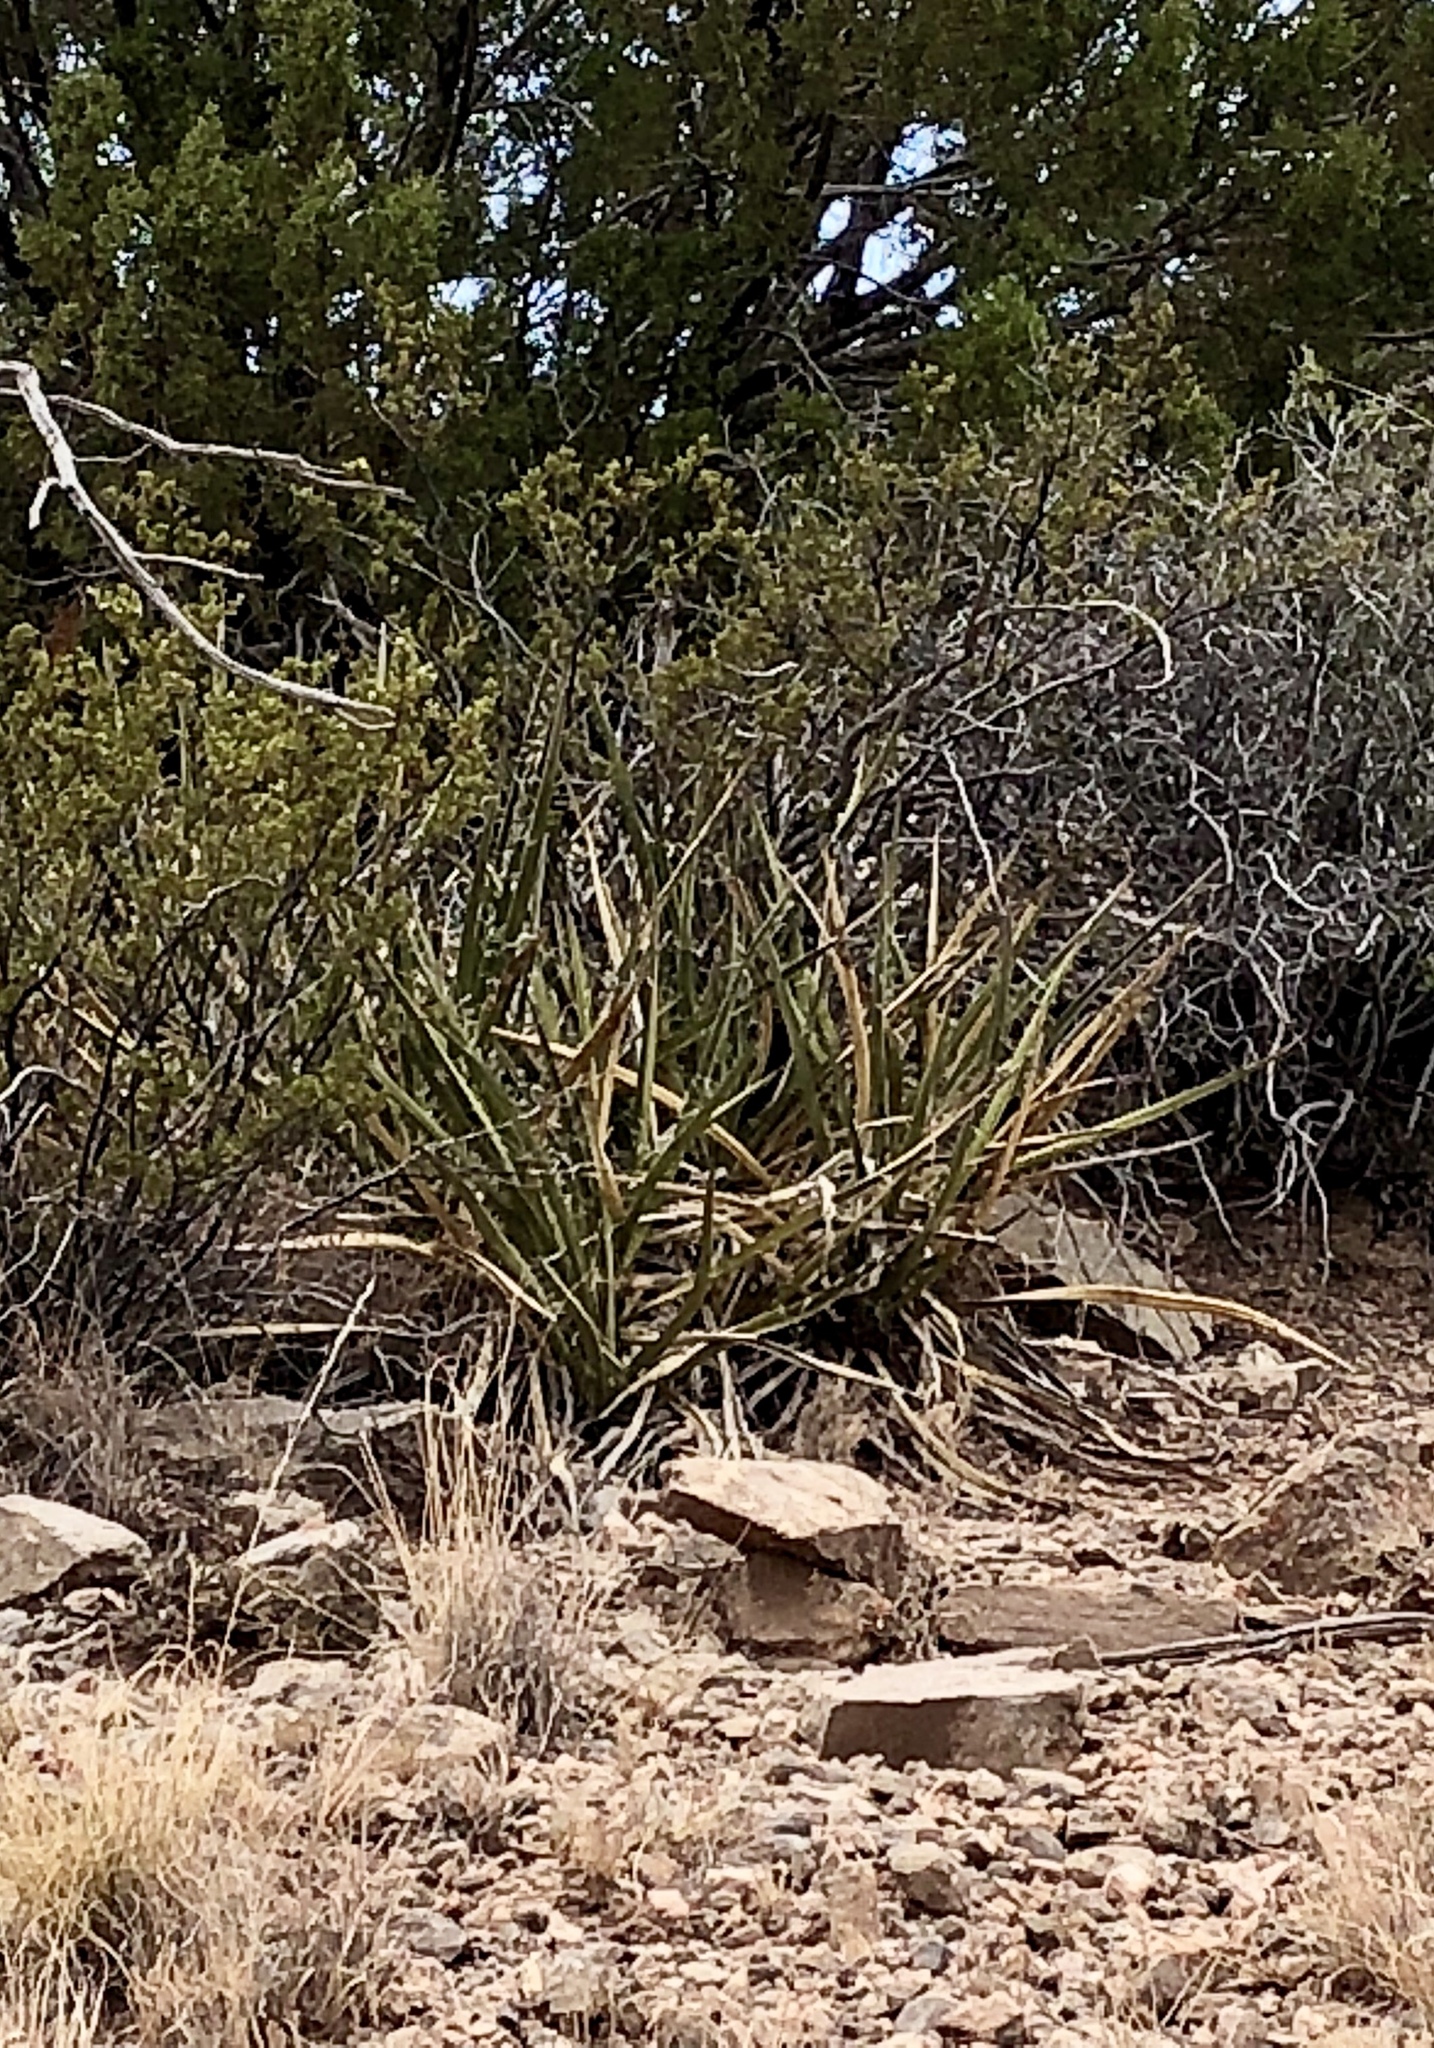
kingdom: Plantae
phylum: Tracheophyta
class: Liliopsida
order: Asparagales
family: Asparagaceae
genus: Yucca
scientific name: Yucca baccata
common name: Banana yucca
